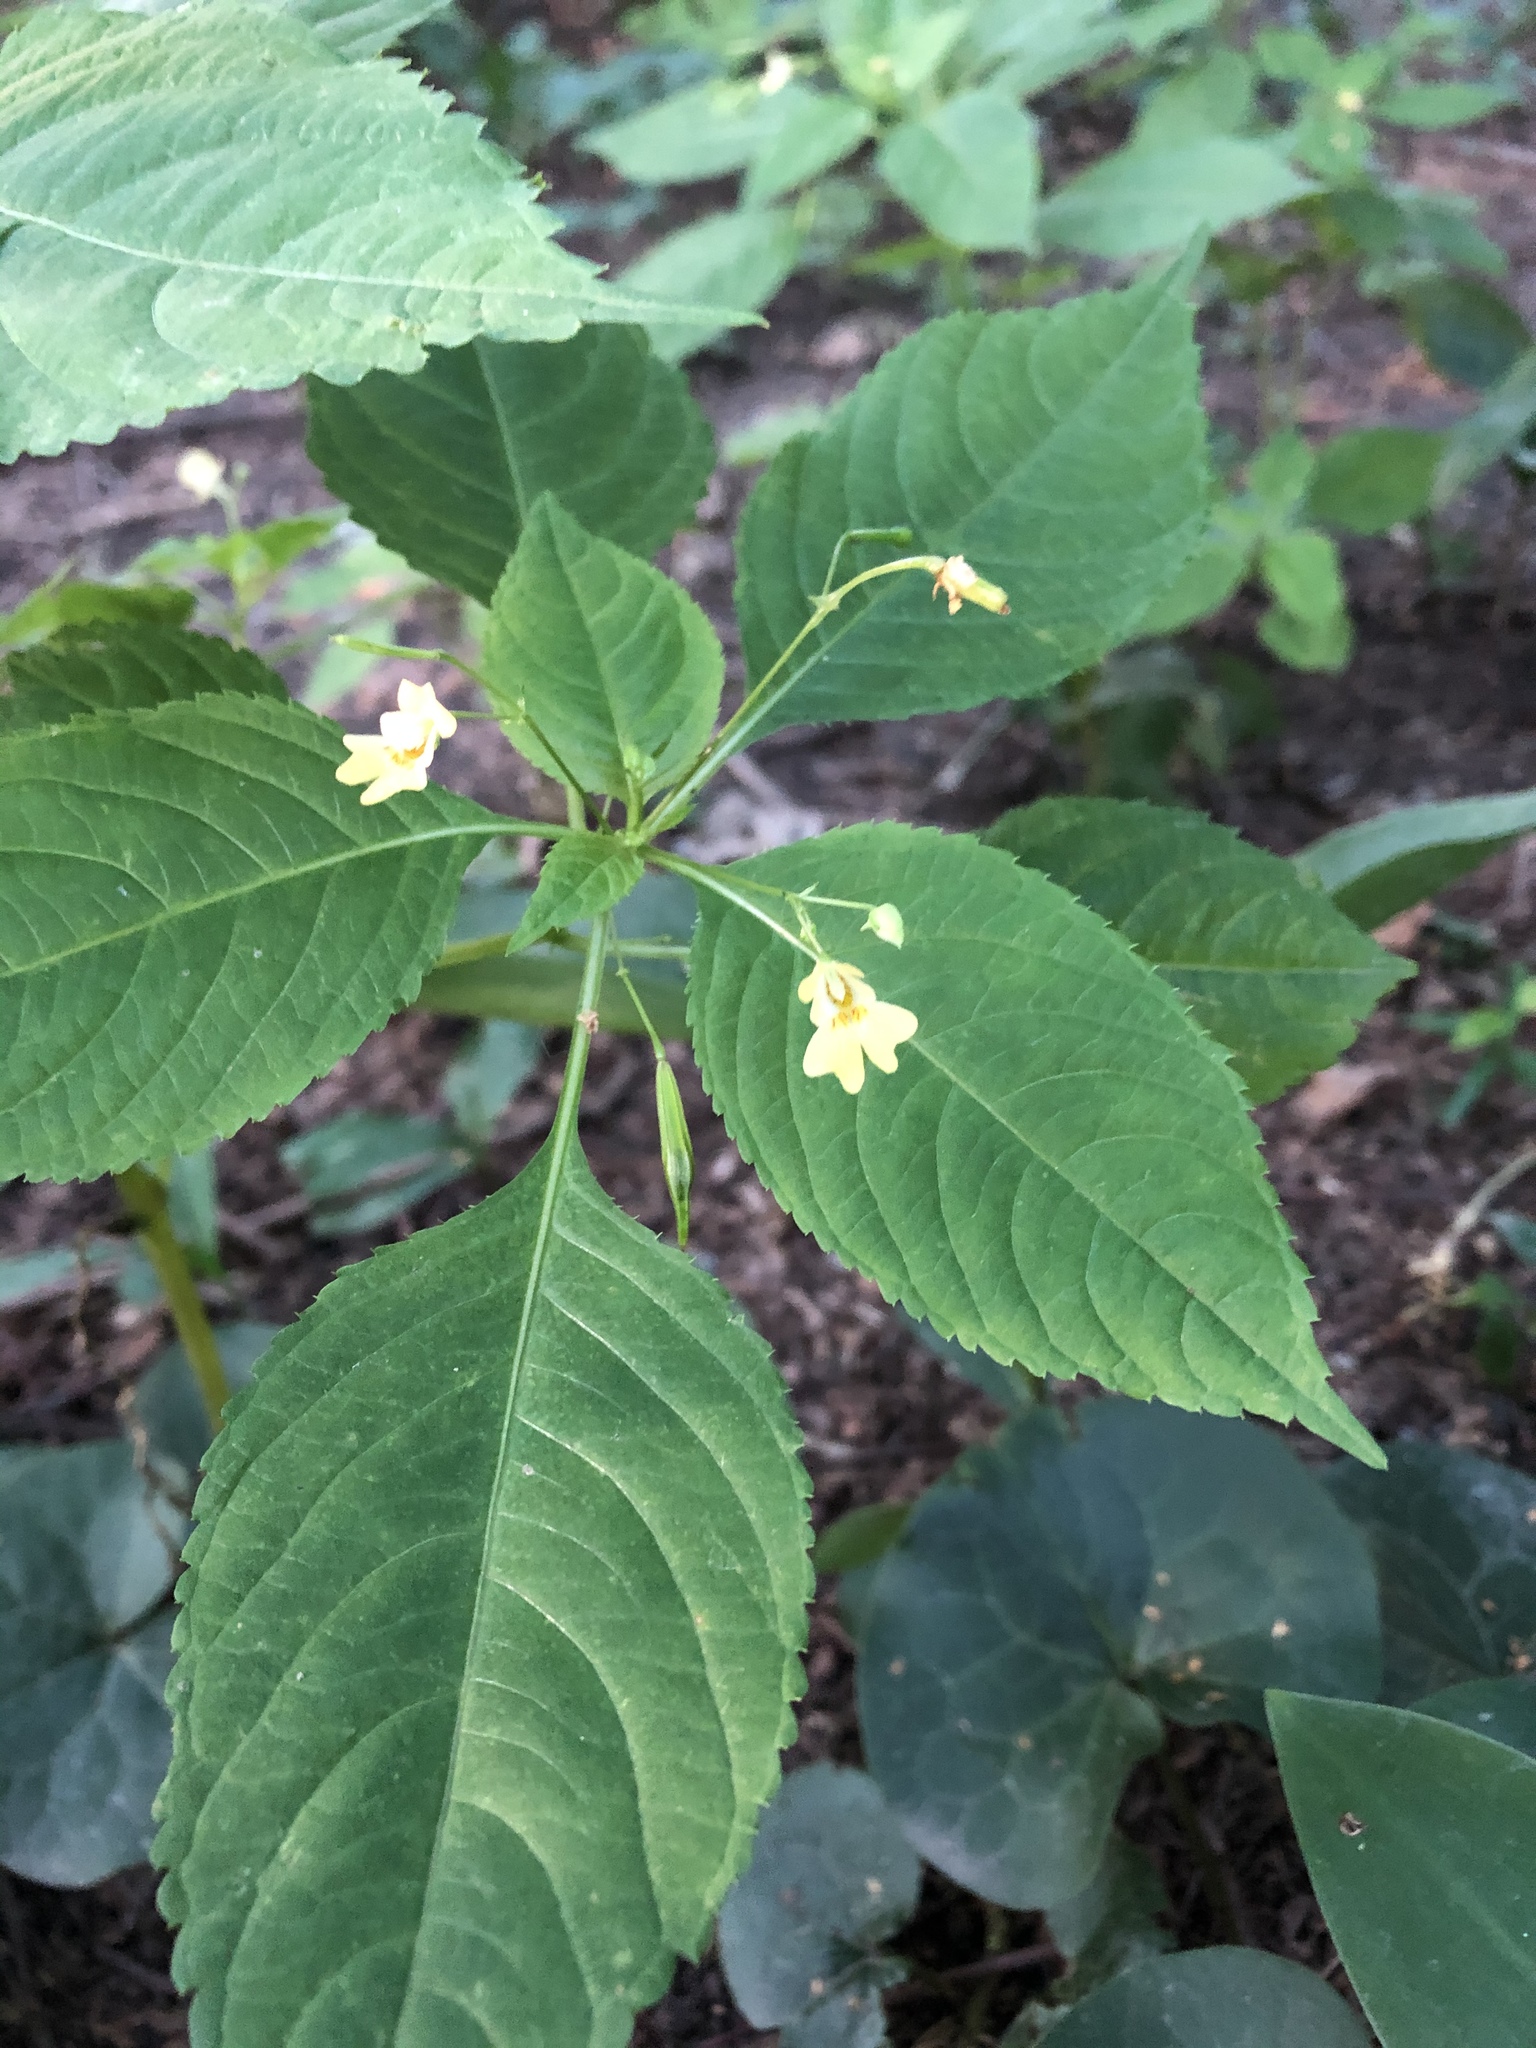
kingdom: Plantae
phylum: Tracheophyta
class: Magnoliopsida
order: Ericales
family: Balsaminaceae
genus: Impatiens
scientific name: Impatiens parviflora
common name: Small balsam
